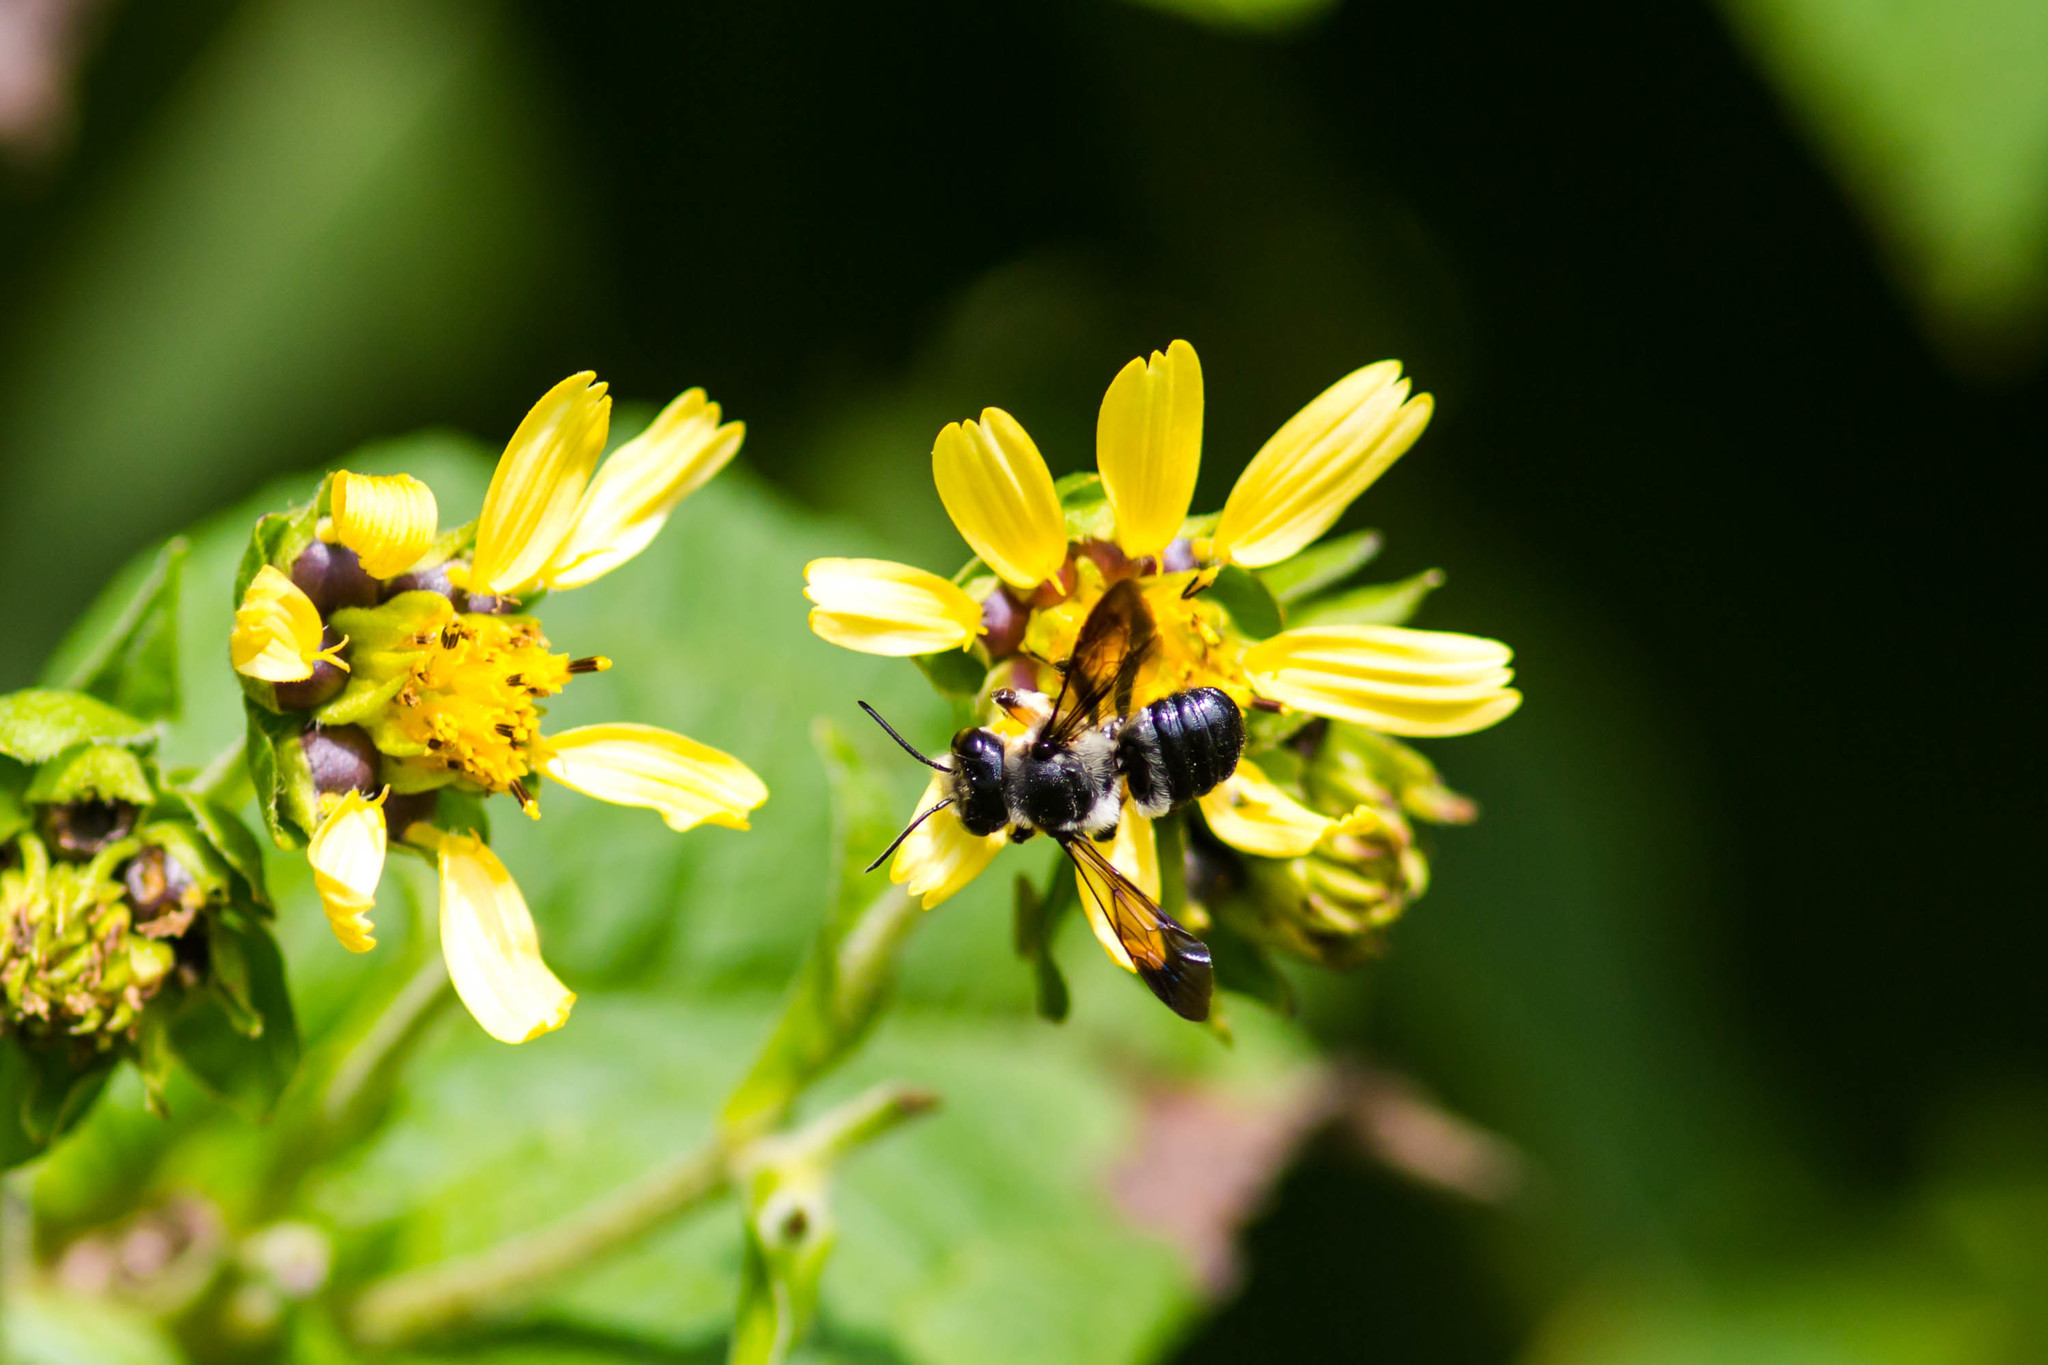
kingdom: Animalia
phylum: Arthropoda
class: Insecta
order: Hymenoptera
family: Megachilidae
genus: Megachile
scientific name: Megachile xylocopoides
